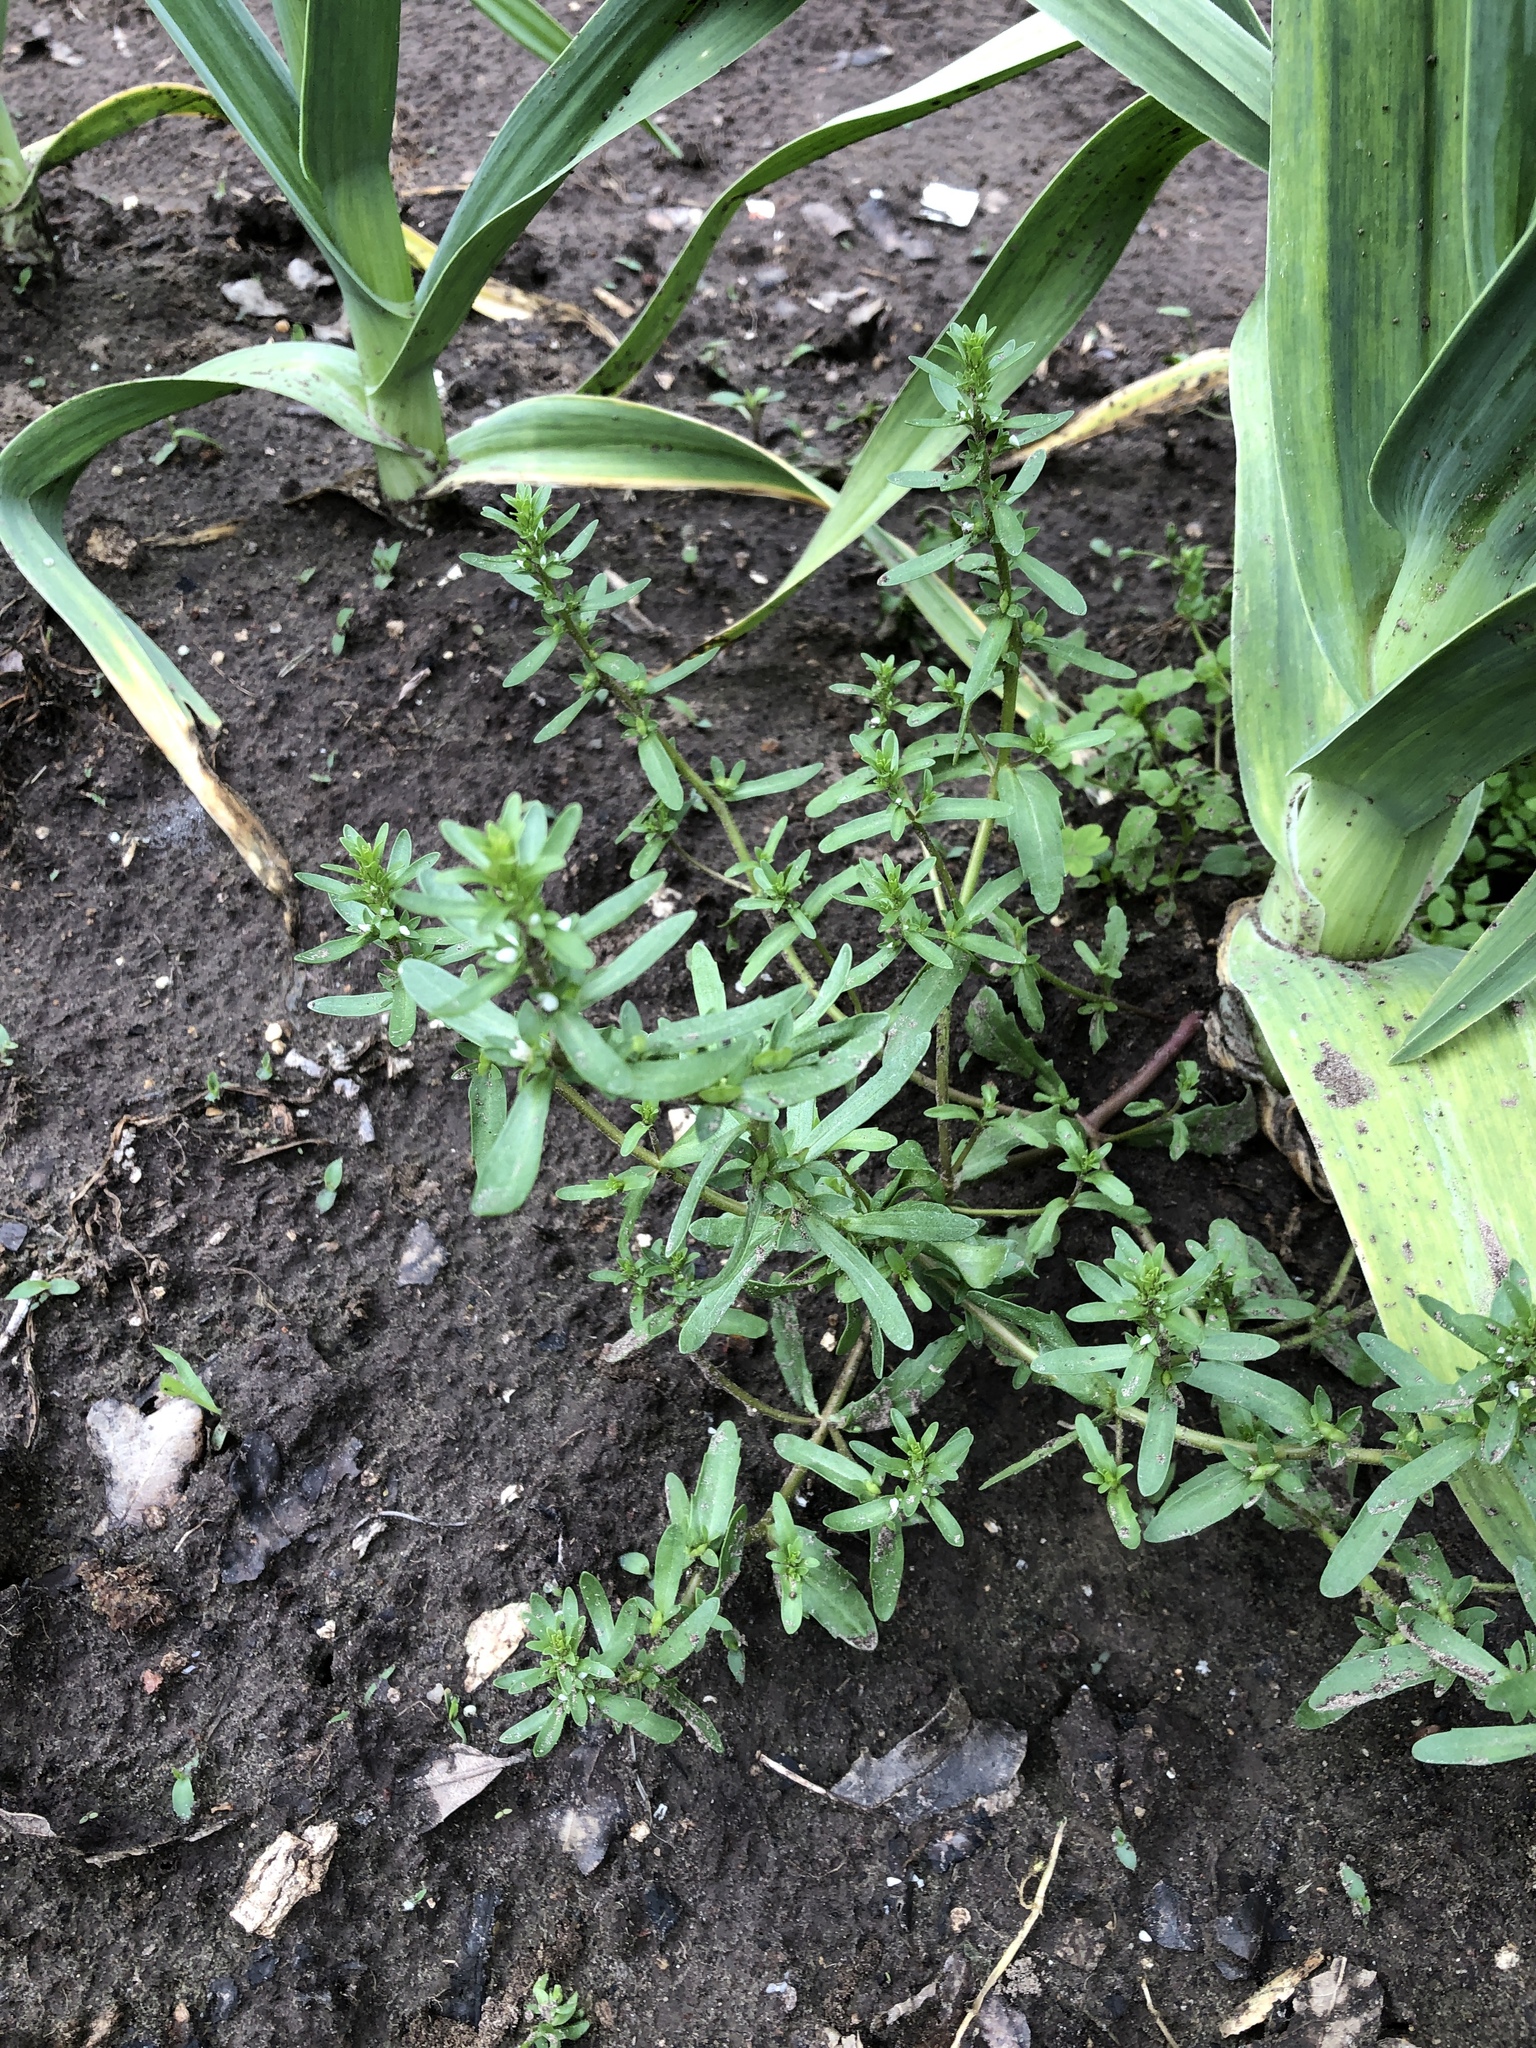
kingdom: Plantae
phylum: Tracheophyta
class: Magnoliopsida
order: Lamiales
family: Plantaginaceae
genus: Veronica
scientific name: Veronica peregrina
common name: Neckweed
